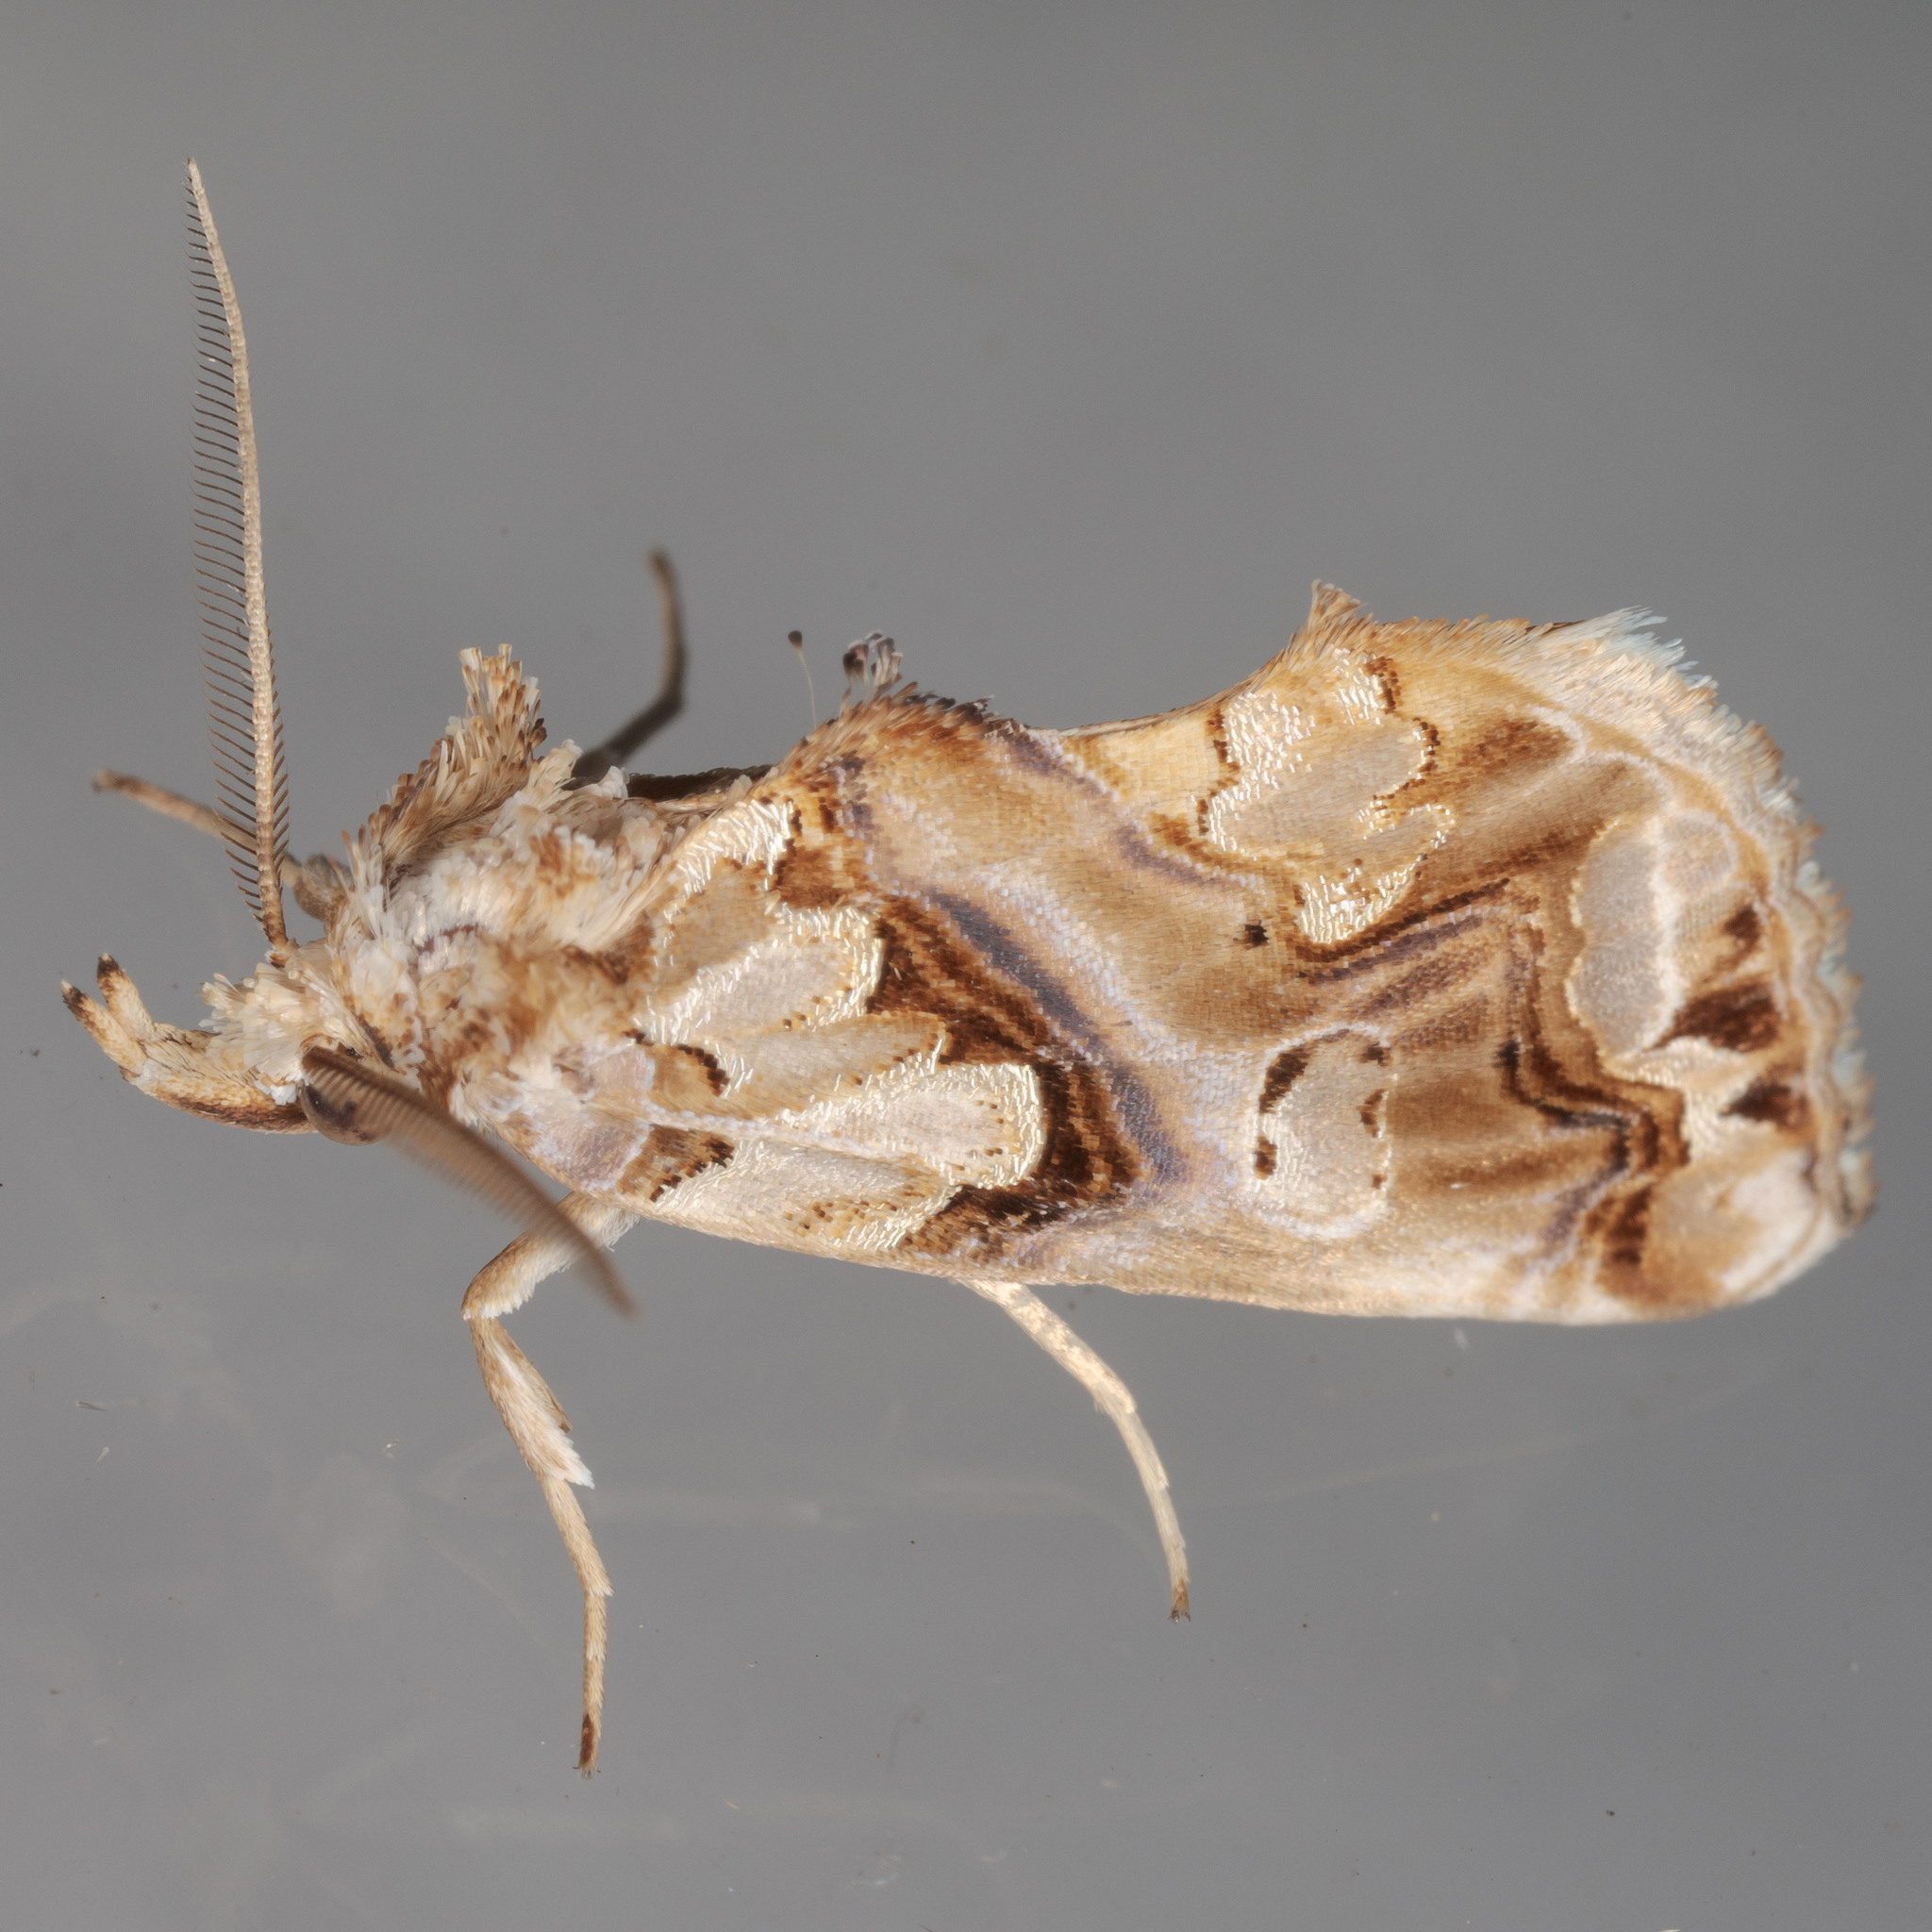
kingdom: Animalia
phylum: Arthropoda
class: Insecta
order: Lepidoptera
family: Erebidae
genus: Plusiodonta
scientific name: Plusiodonta compressipalpis
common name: Moonseed moth
